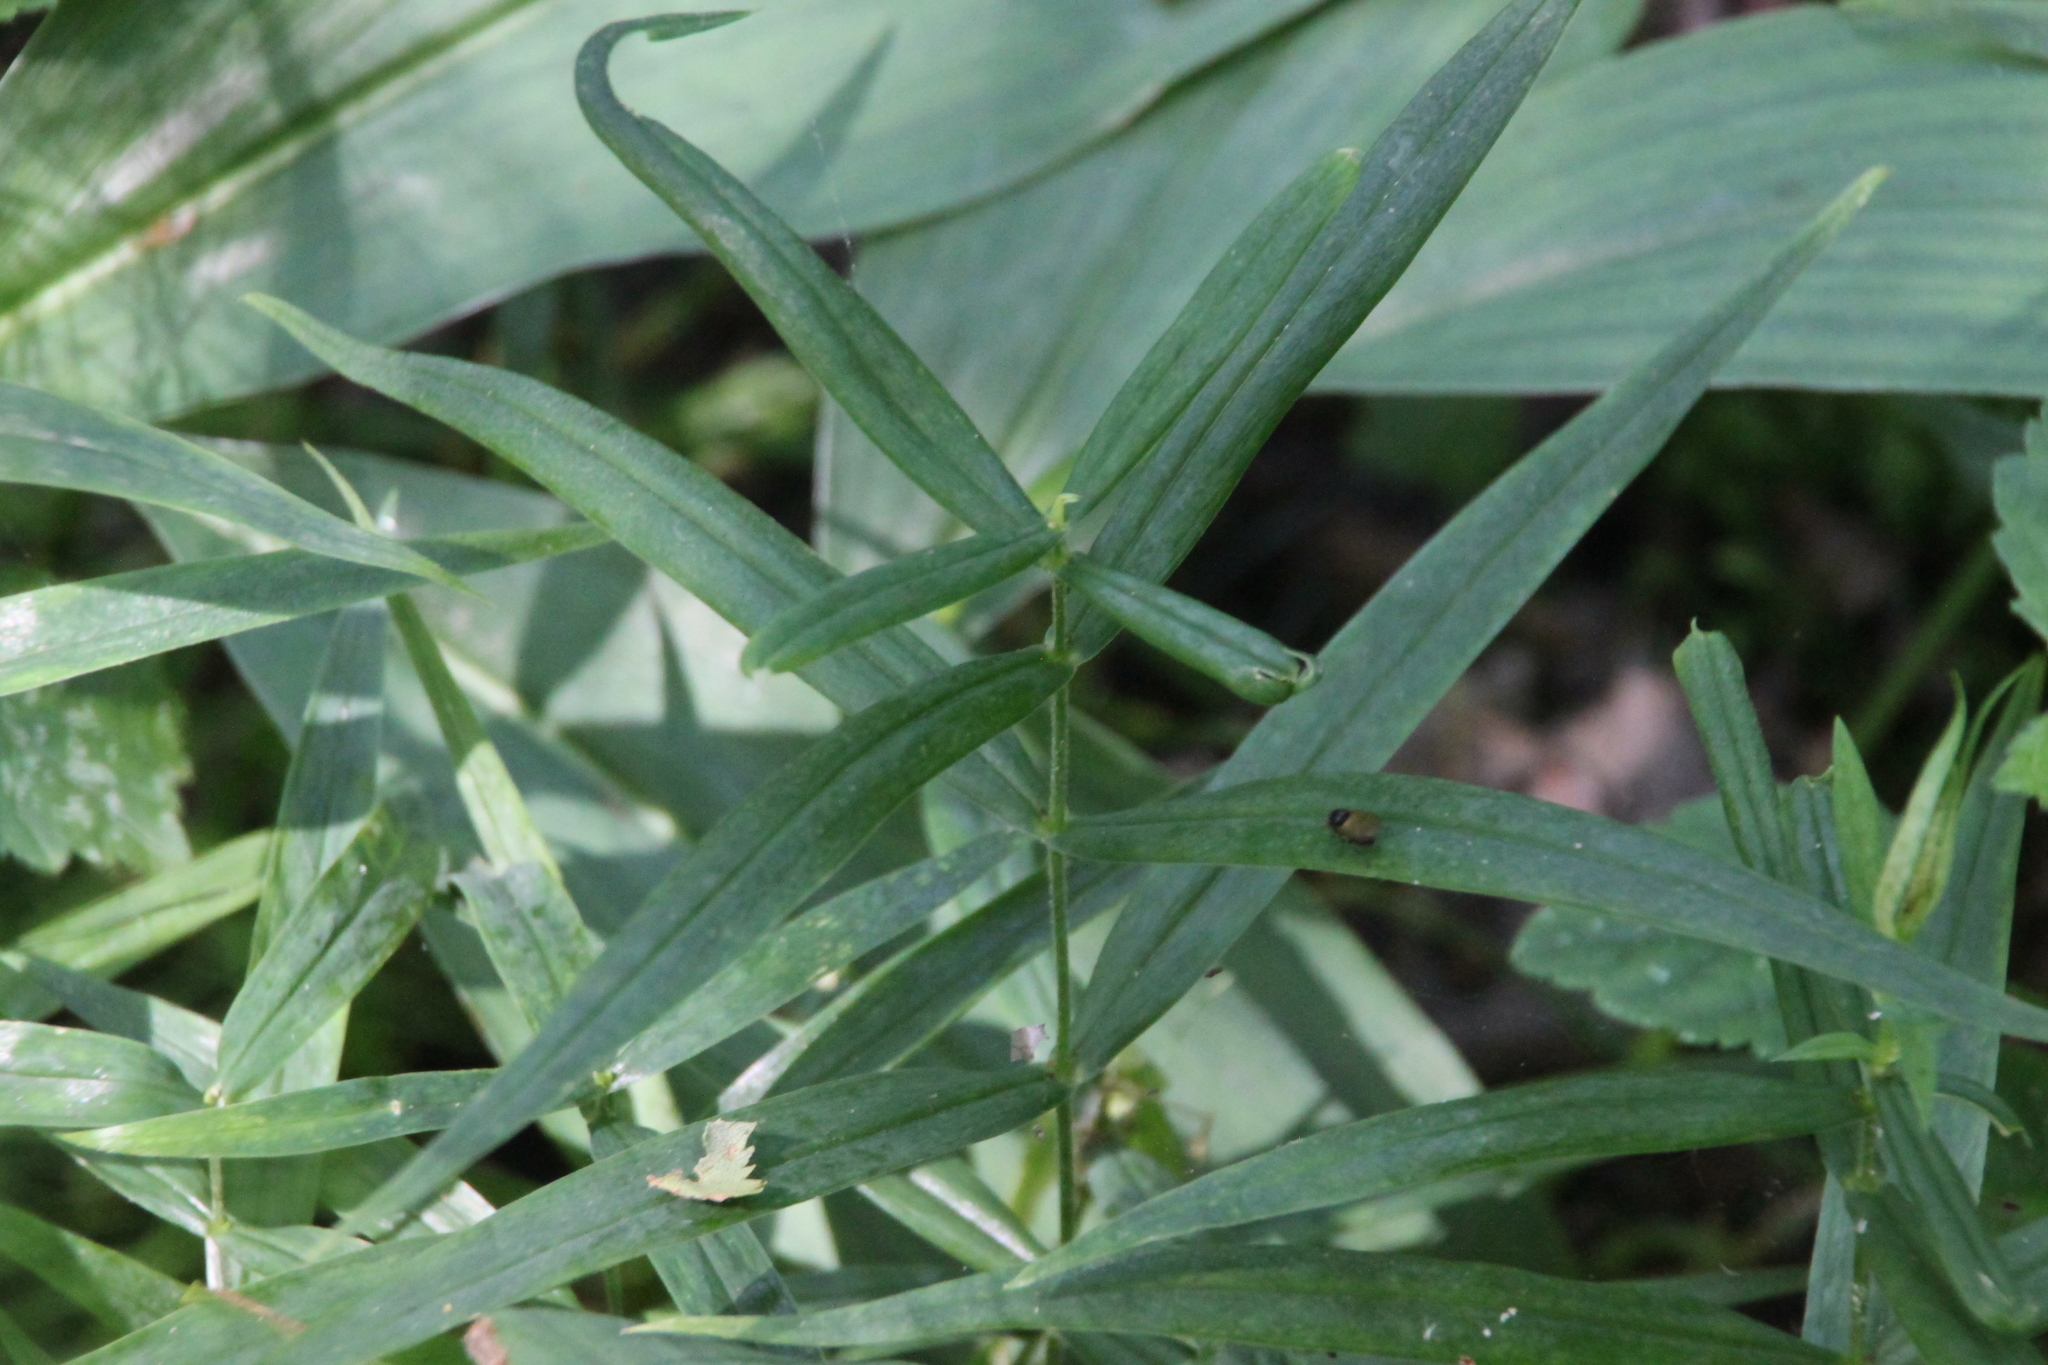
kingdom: Plantae
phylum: Tracheophyta
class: Magnoliopsida
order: Caryophyllales
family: Caryophyllaceae
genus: Rabelera
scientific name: Rabelera holostea
